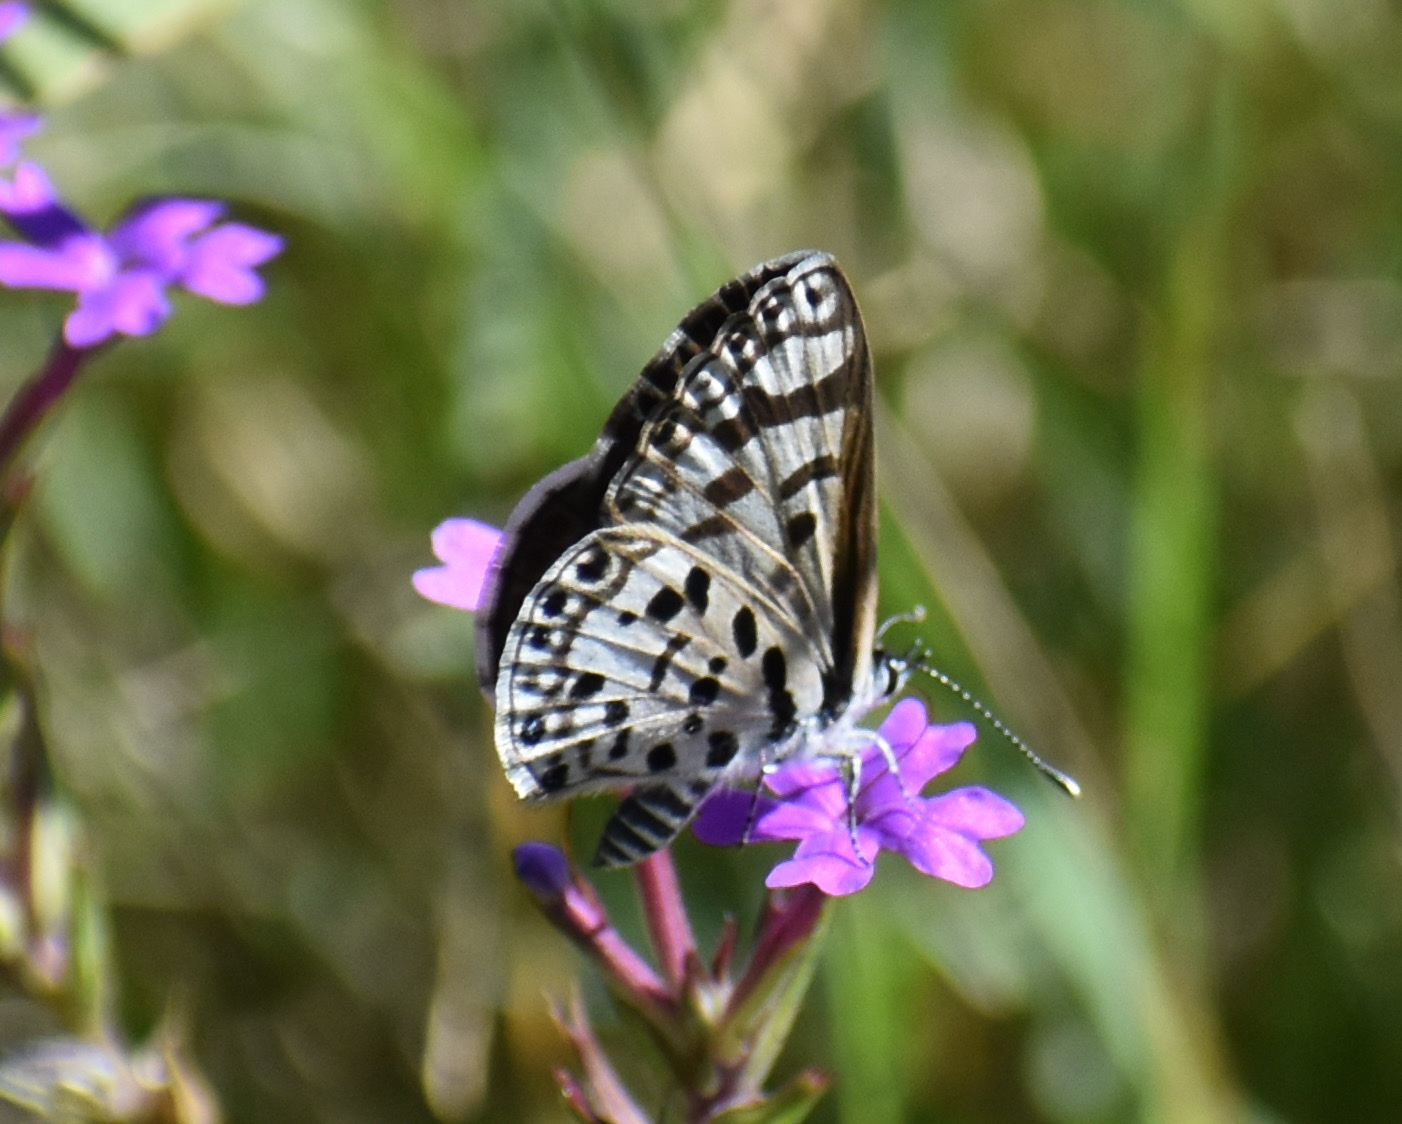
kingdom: Animalia
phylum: Arthropoda
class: Insecta
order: Lepidoptera
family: Lycaenidae
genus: Azanus
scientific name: Azanus natalensis
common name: Natal babul blue
